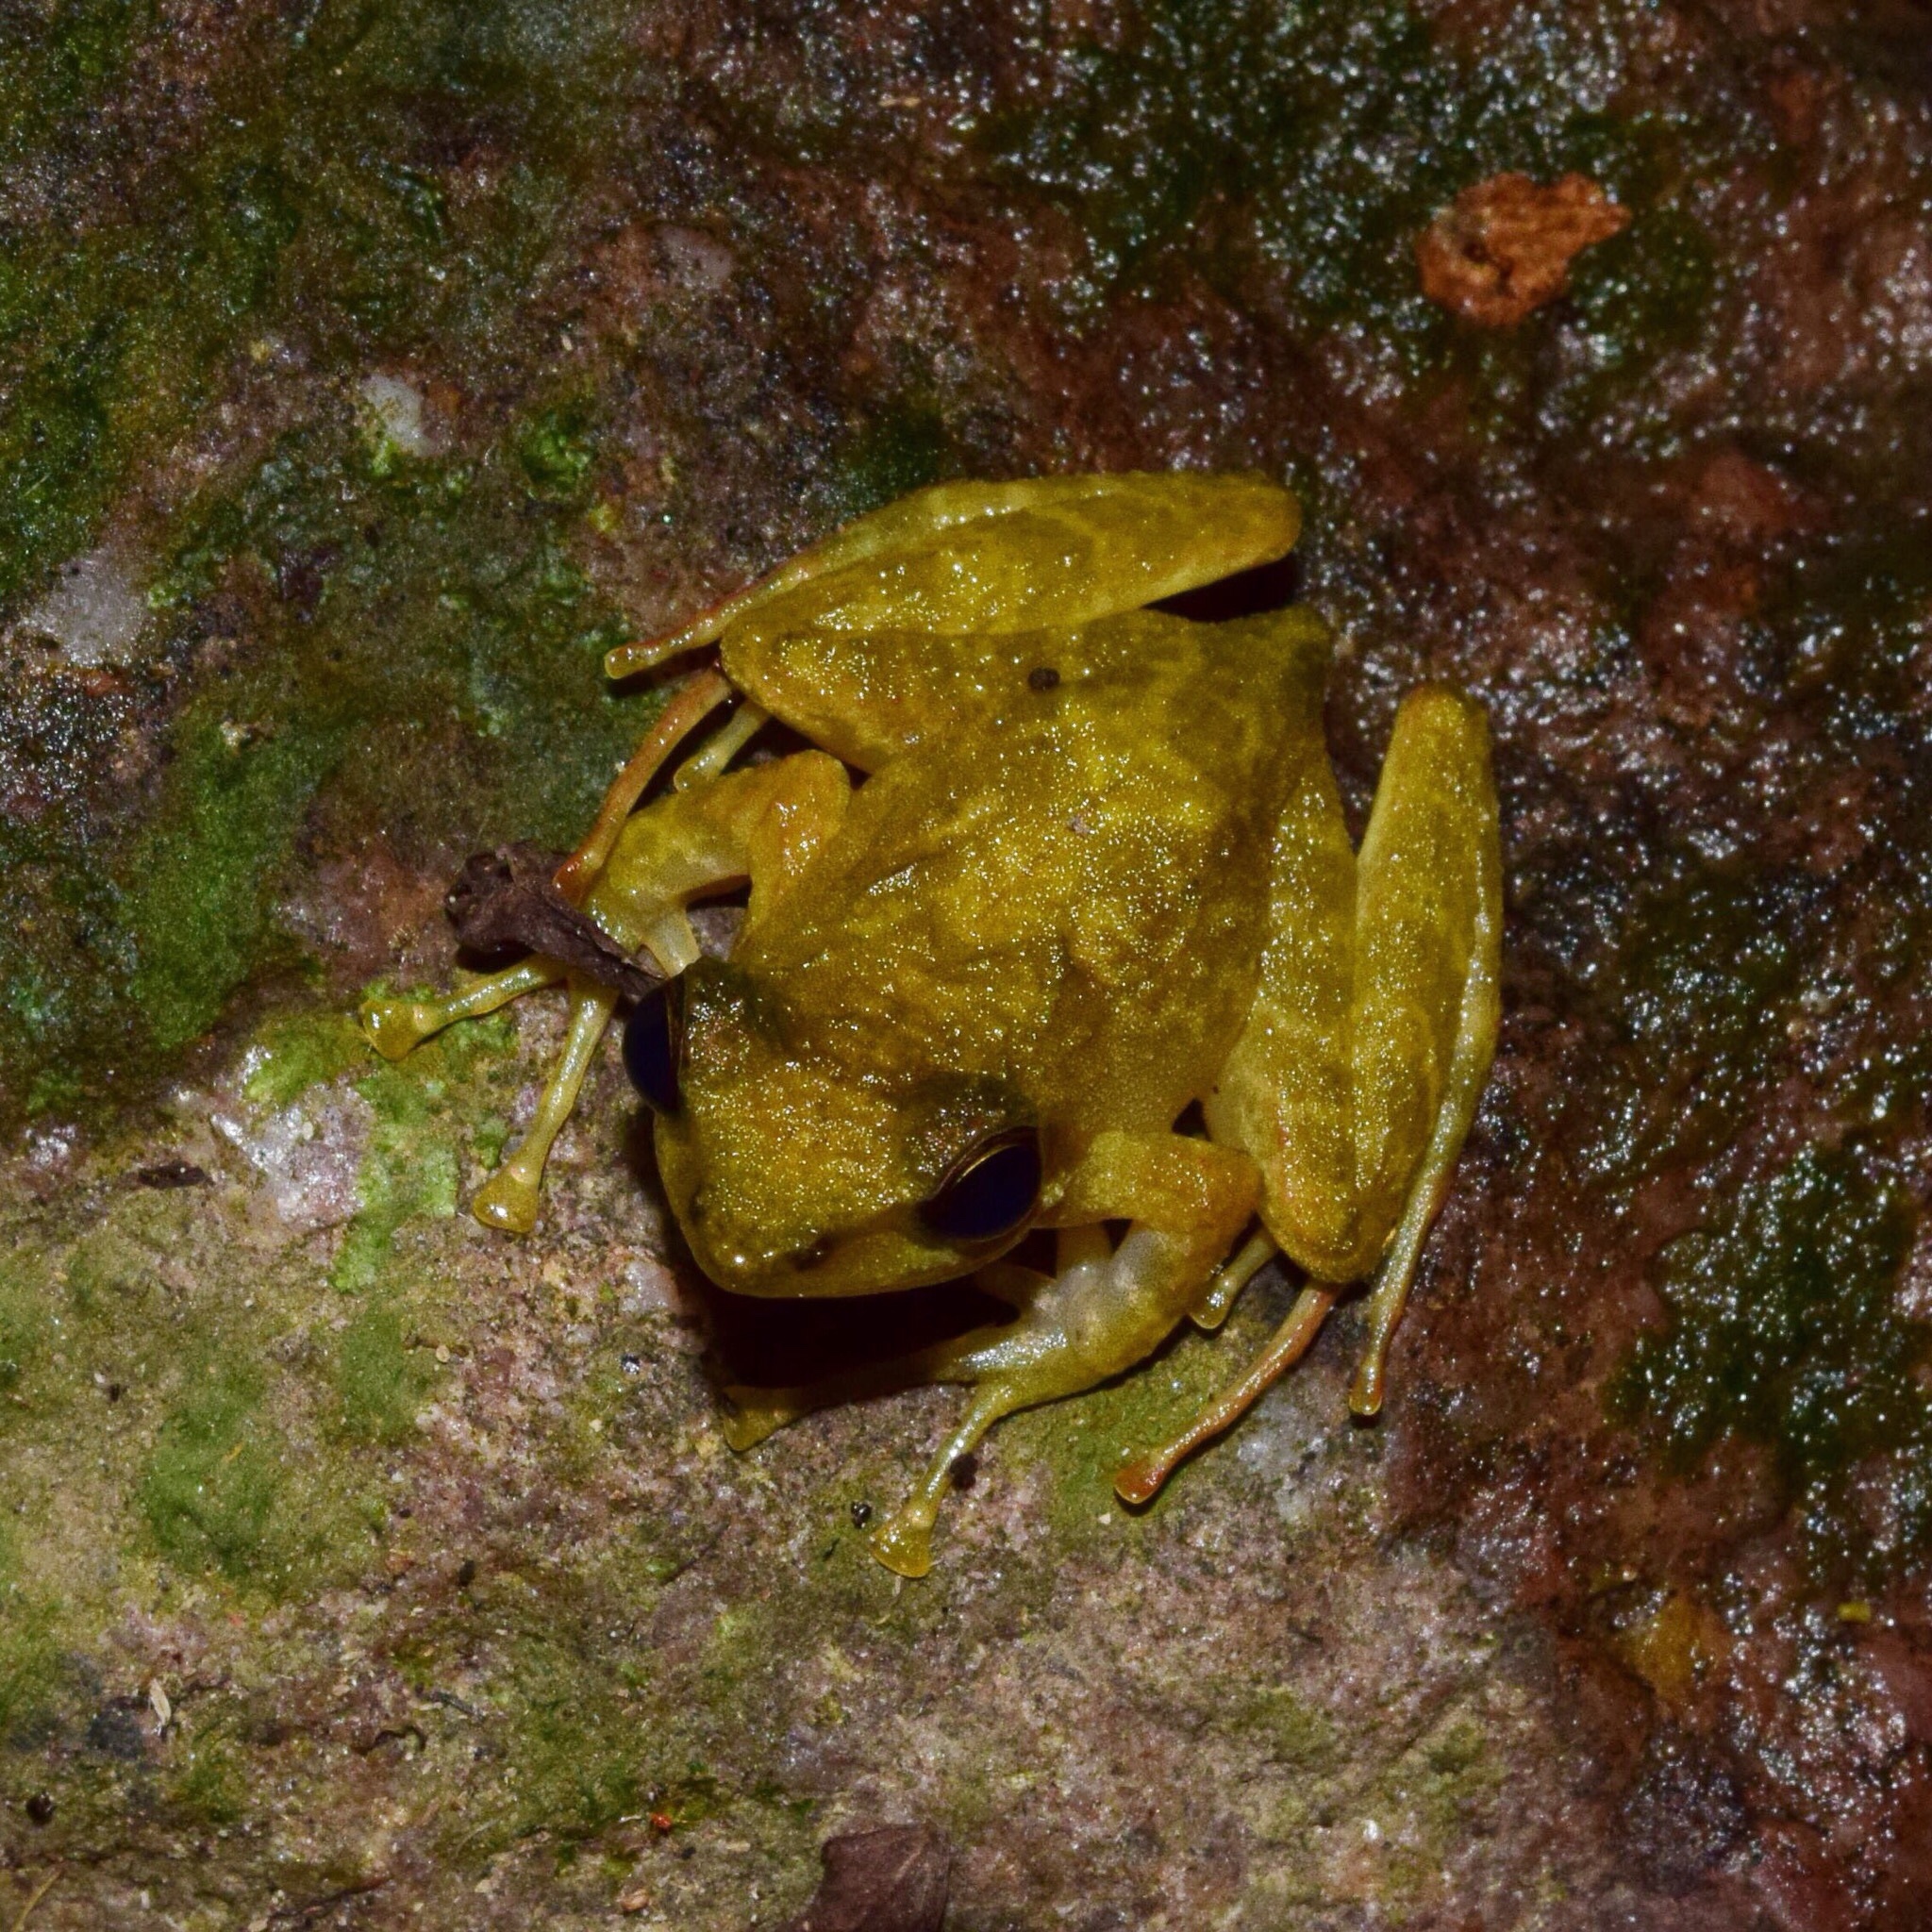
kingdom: Animalia
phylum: Chordata
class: Amphibia
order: Anura
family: Pyxicephalidae
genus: Natalobatrachus
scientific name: Natalobatrachus bonebergi
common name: Natal diving frog
